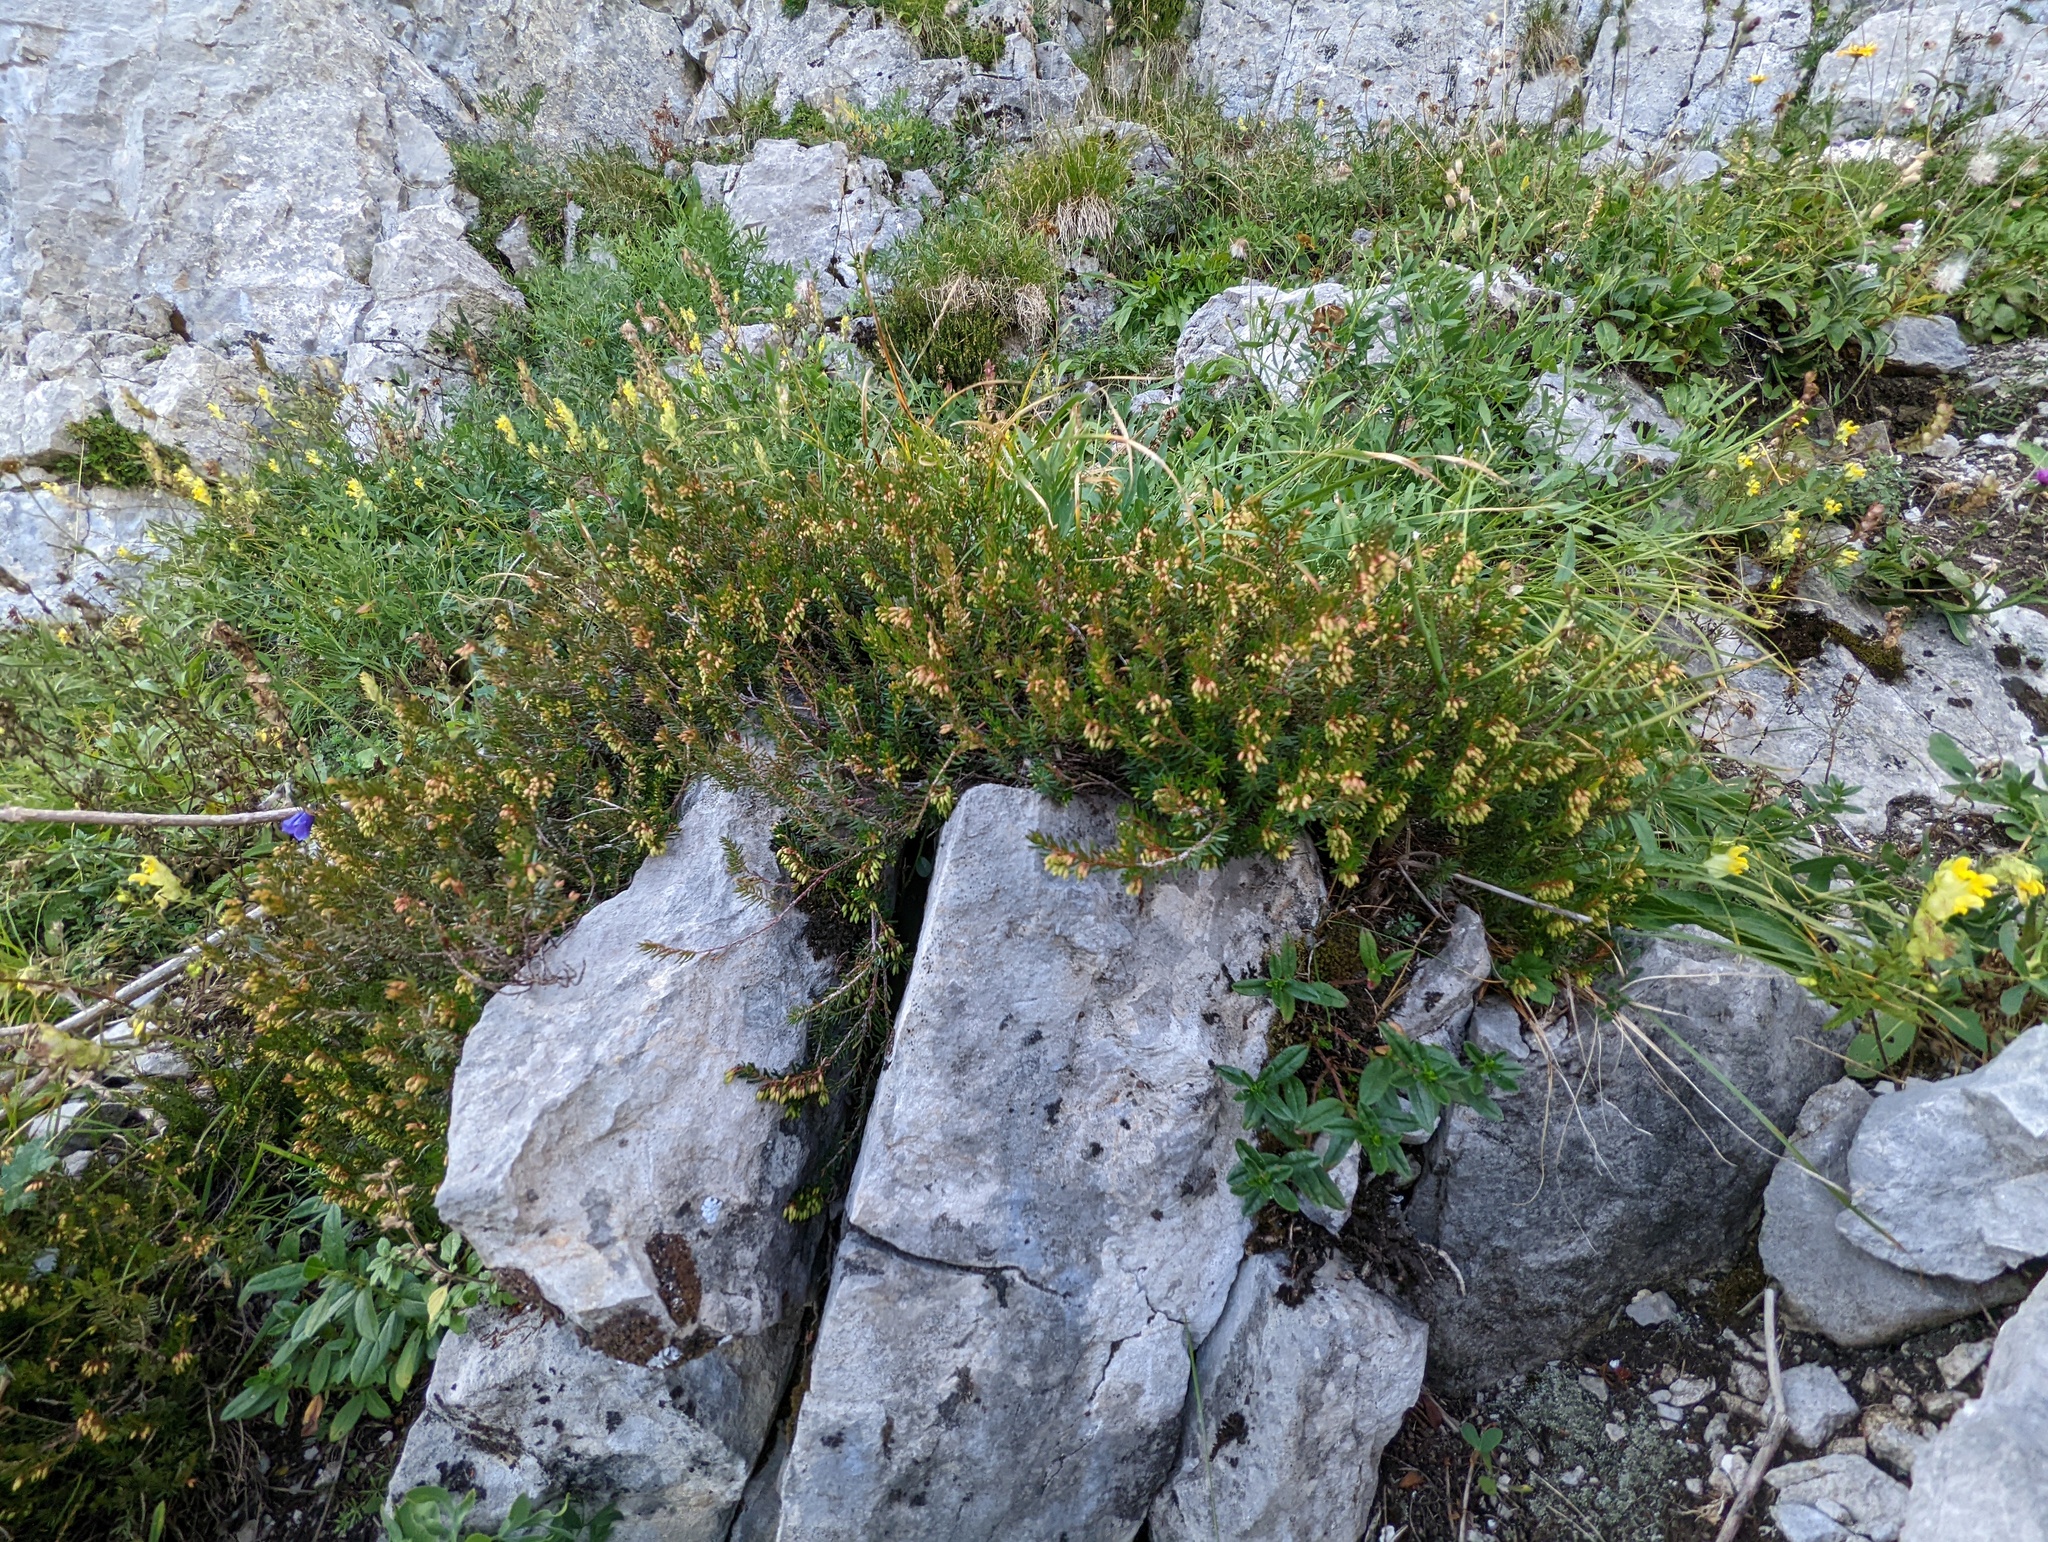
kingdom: Plantae
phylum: Tracheophyta
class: Magnoliopsida
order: Ericales
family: Ericaceae
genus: Erica
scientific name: Erica carnea
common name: Winter heath
